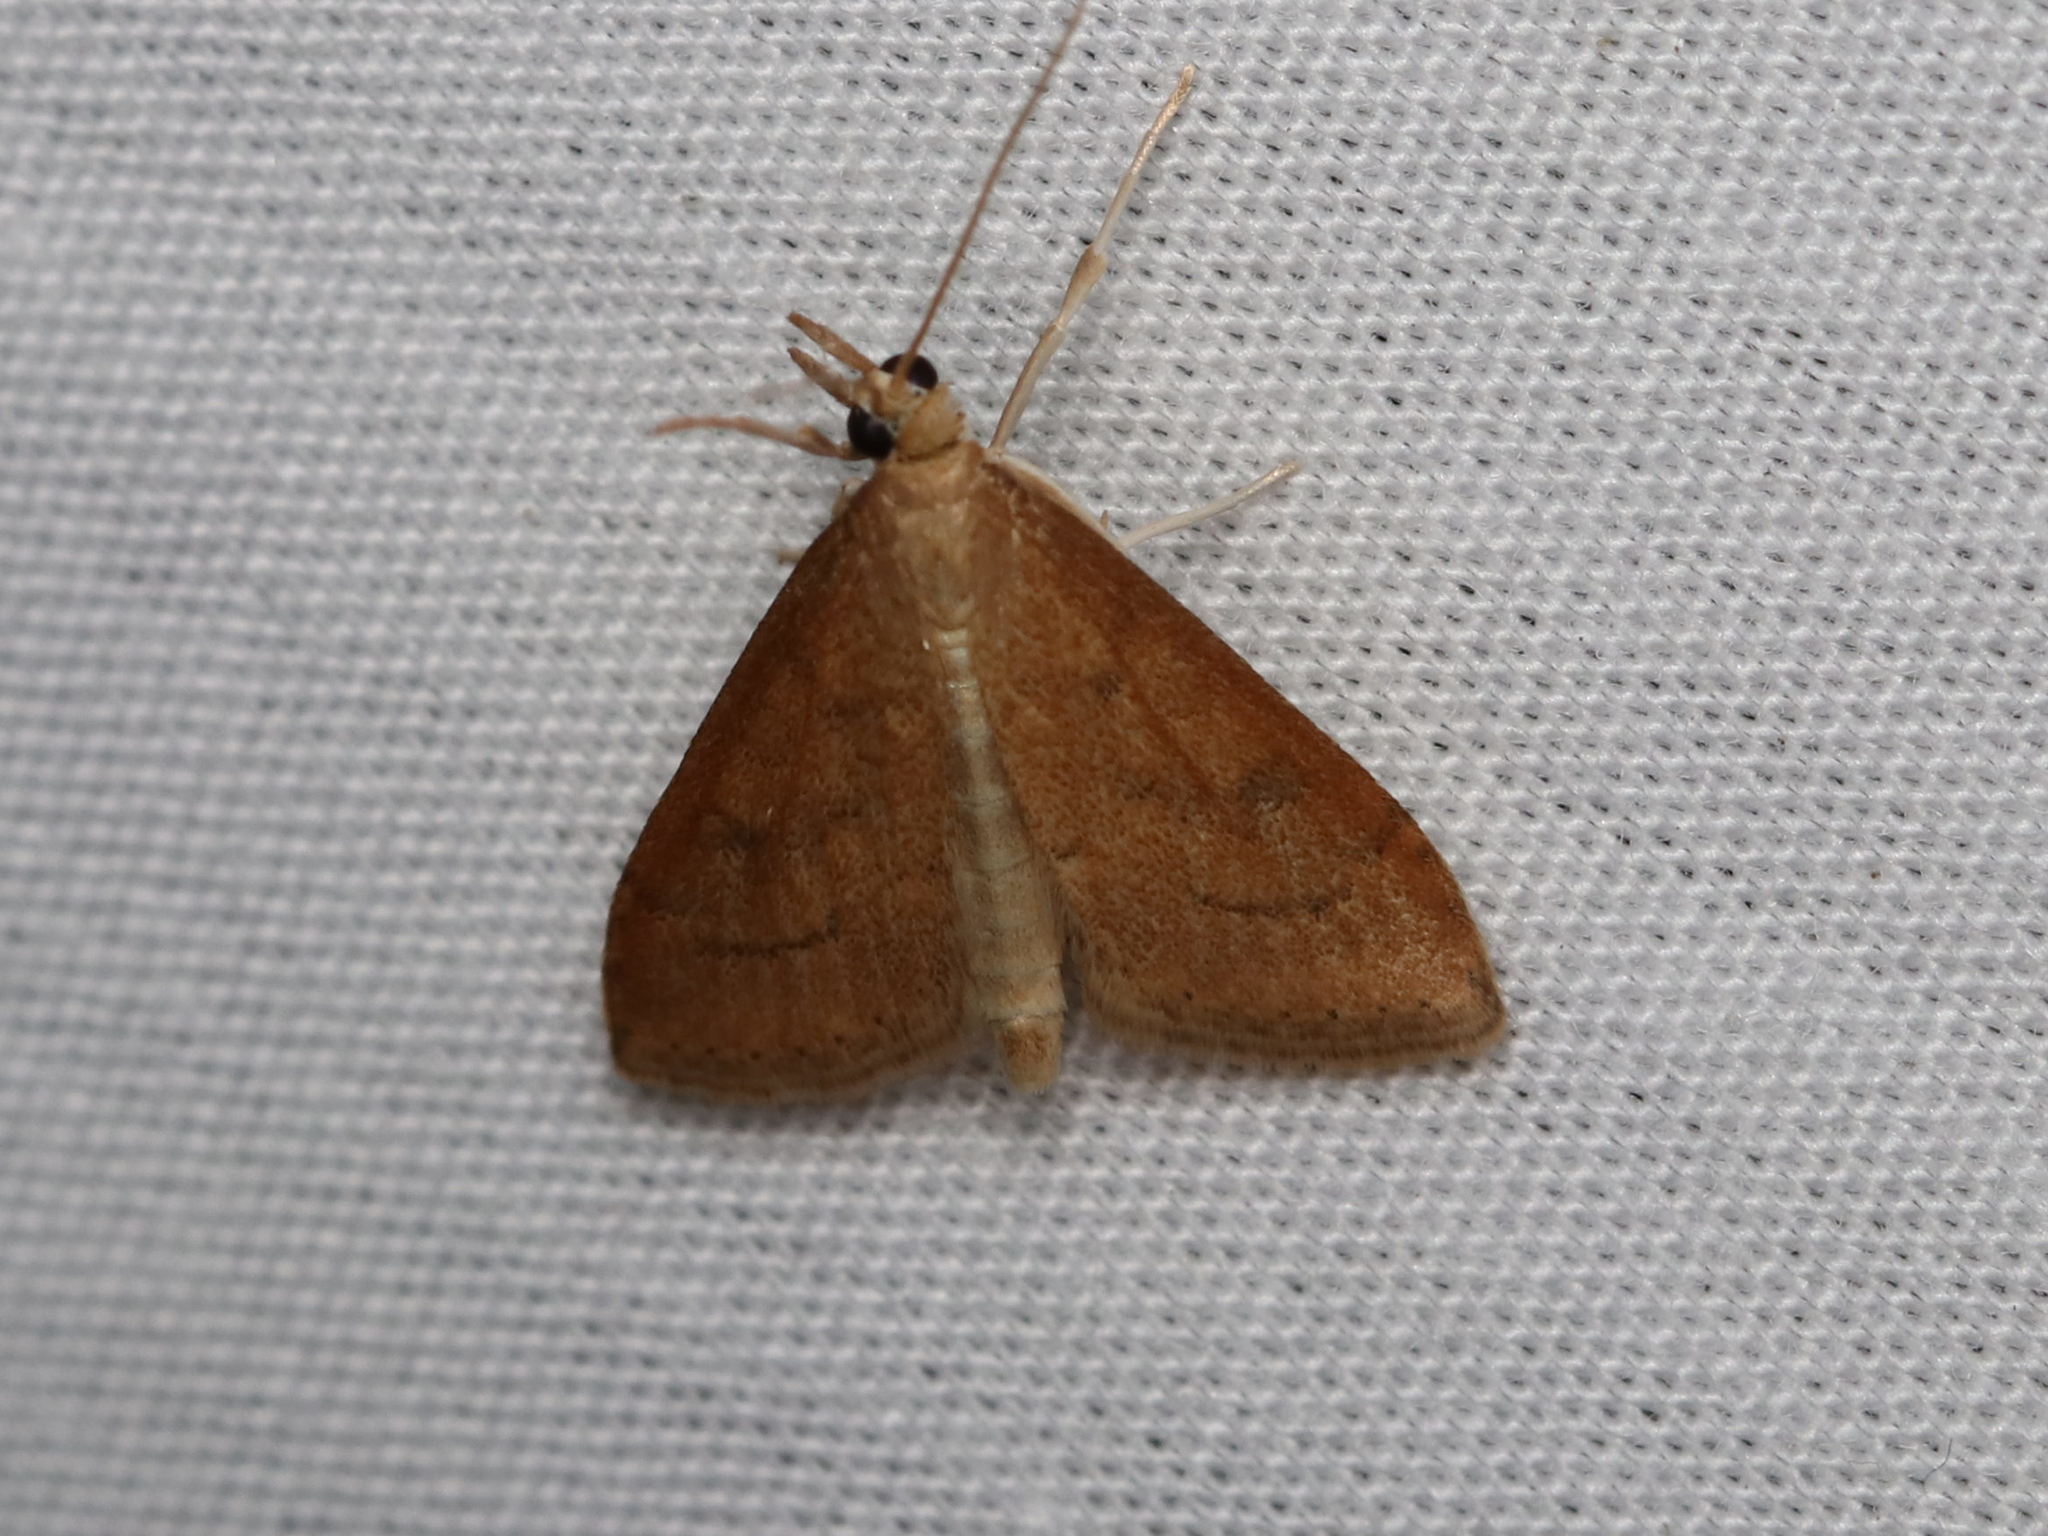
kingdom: Animalia
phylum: Arthropoda
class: Insecta
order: Lepidoptera
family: Crambidae
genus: Udea
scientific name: Udea rubigalis
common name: Celery leaftier moth
